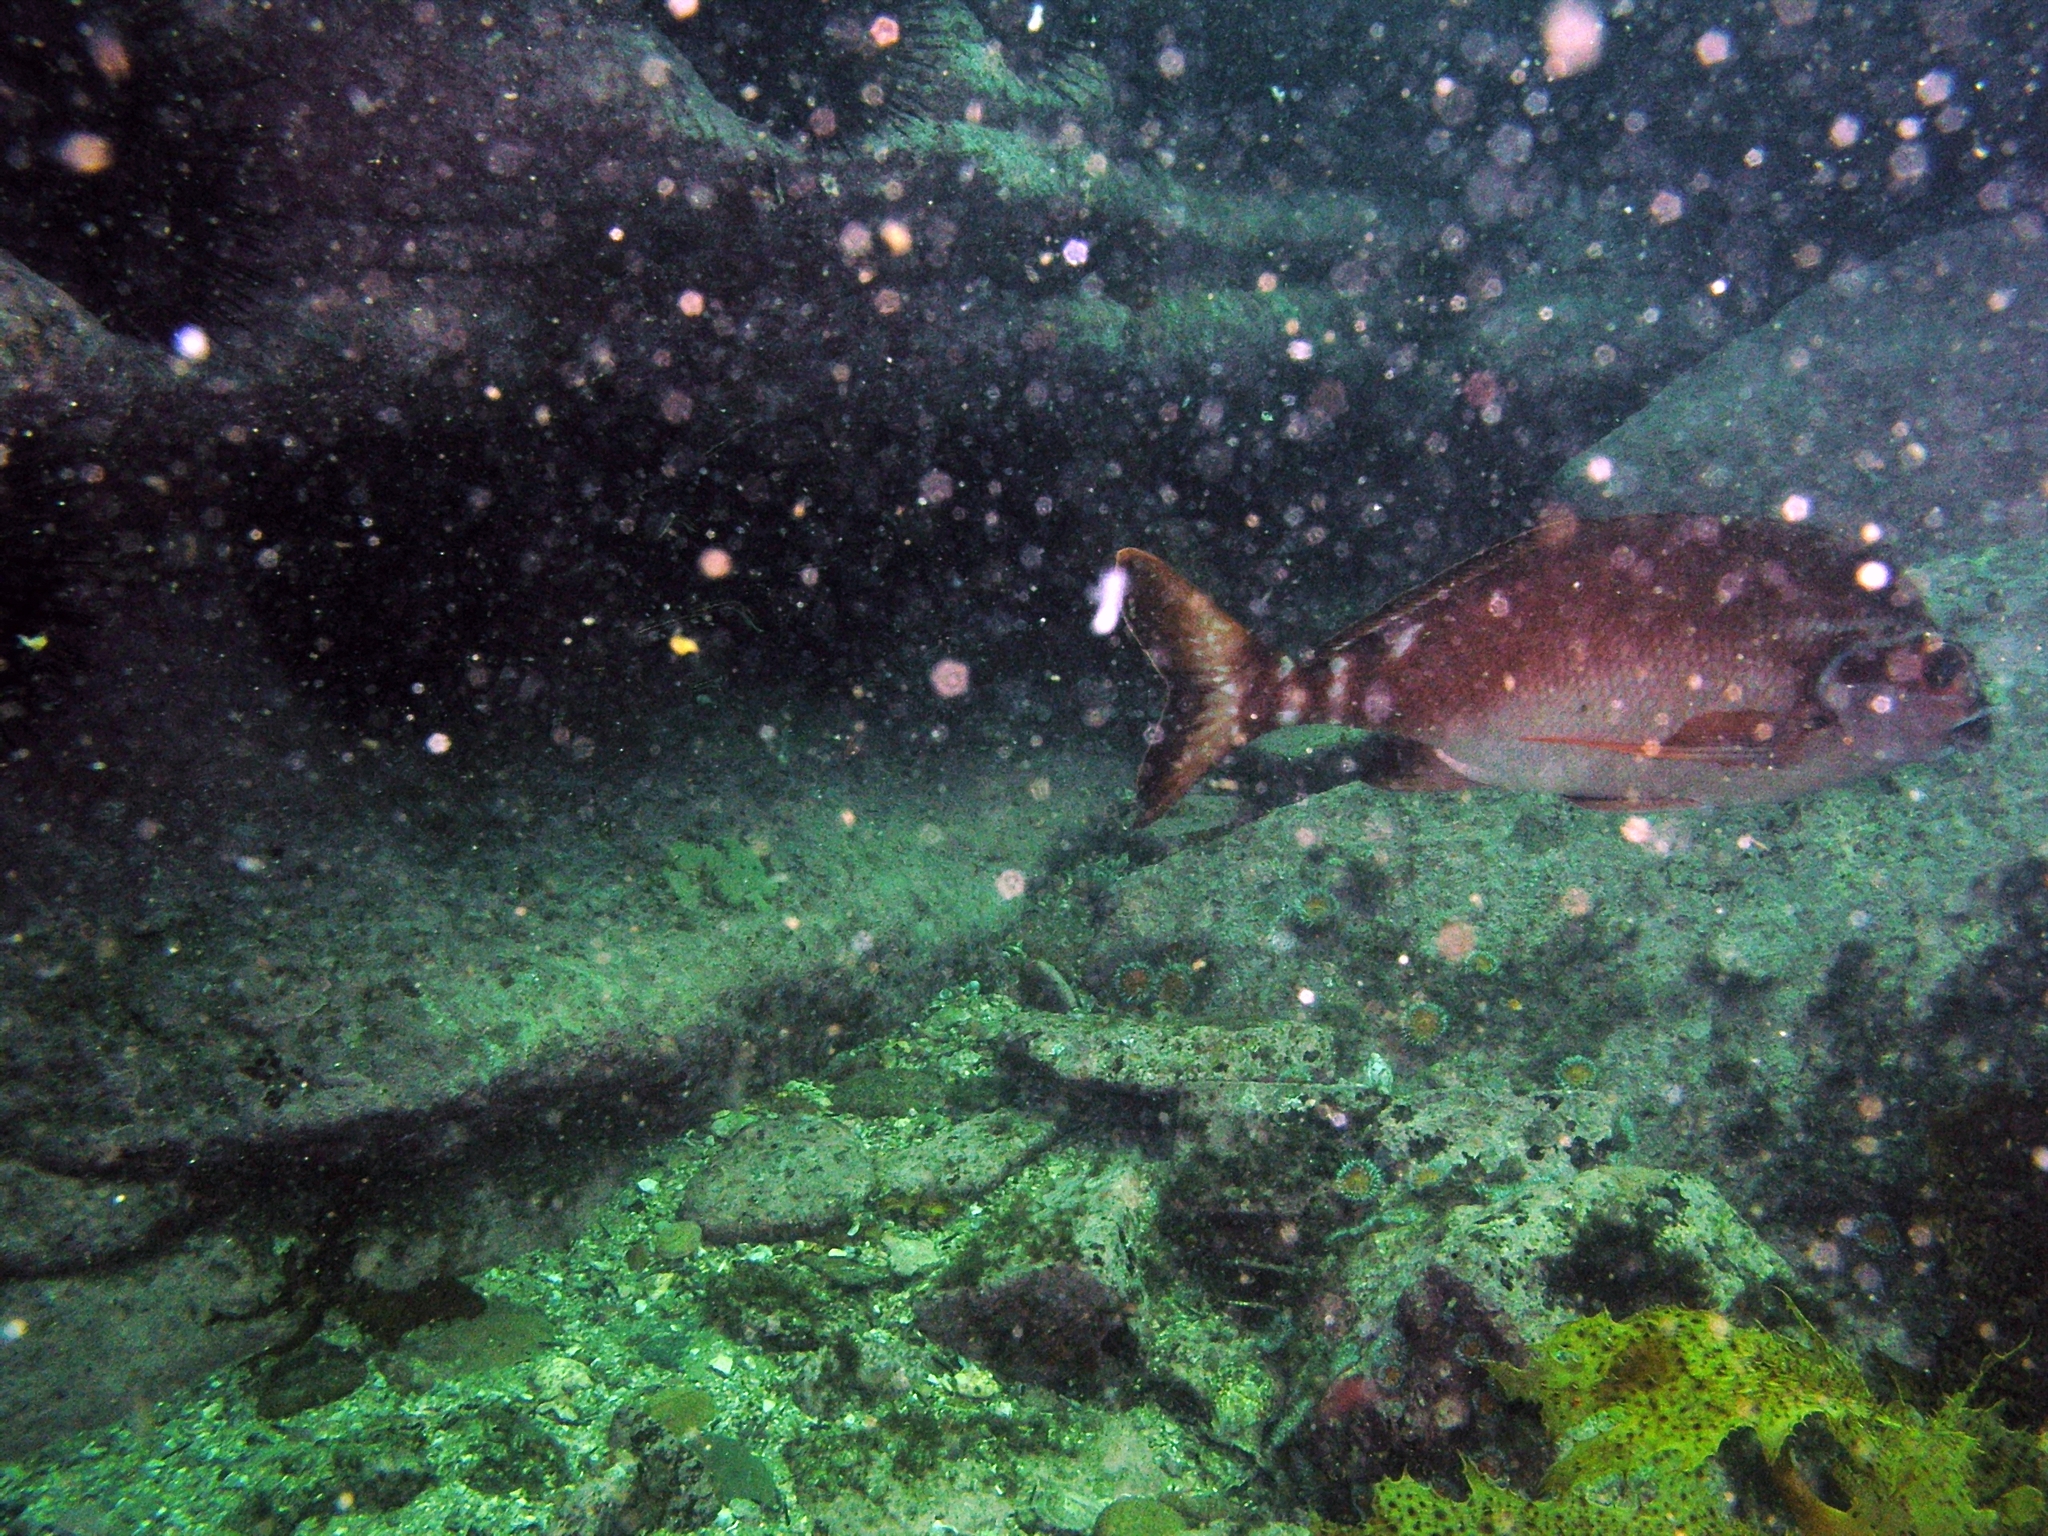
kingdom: Animalia
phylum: Chordata
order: Perciformes
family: Latridae
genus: Morwong
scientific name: Morwong fuscus
